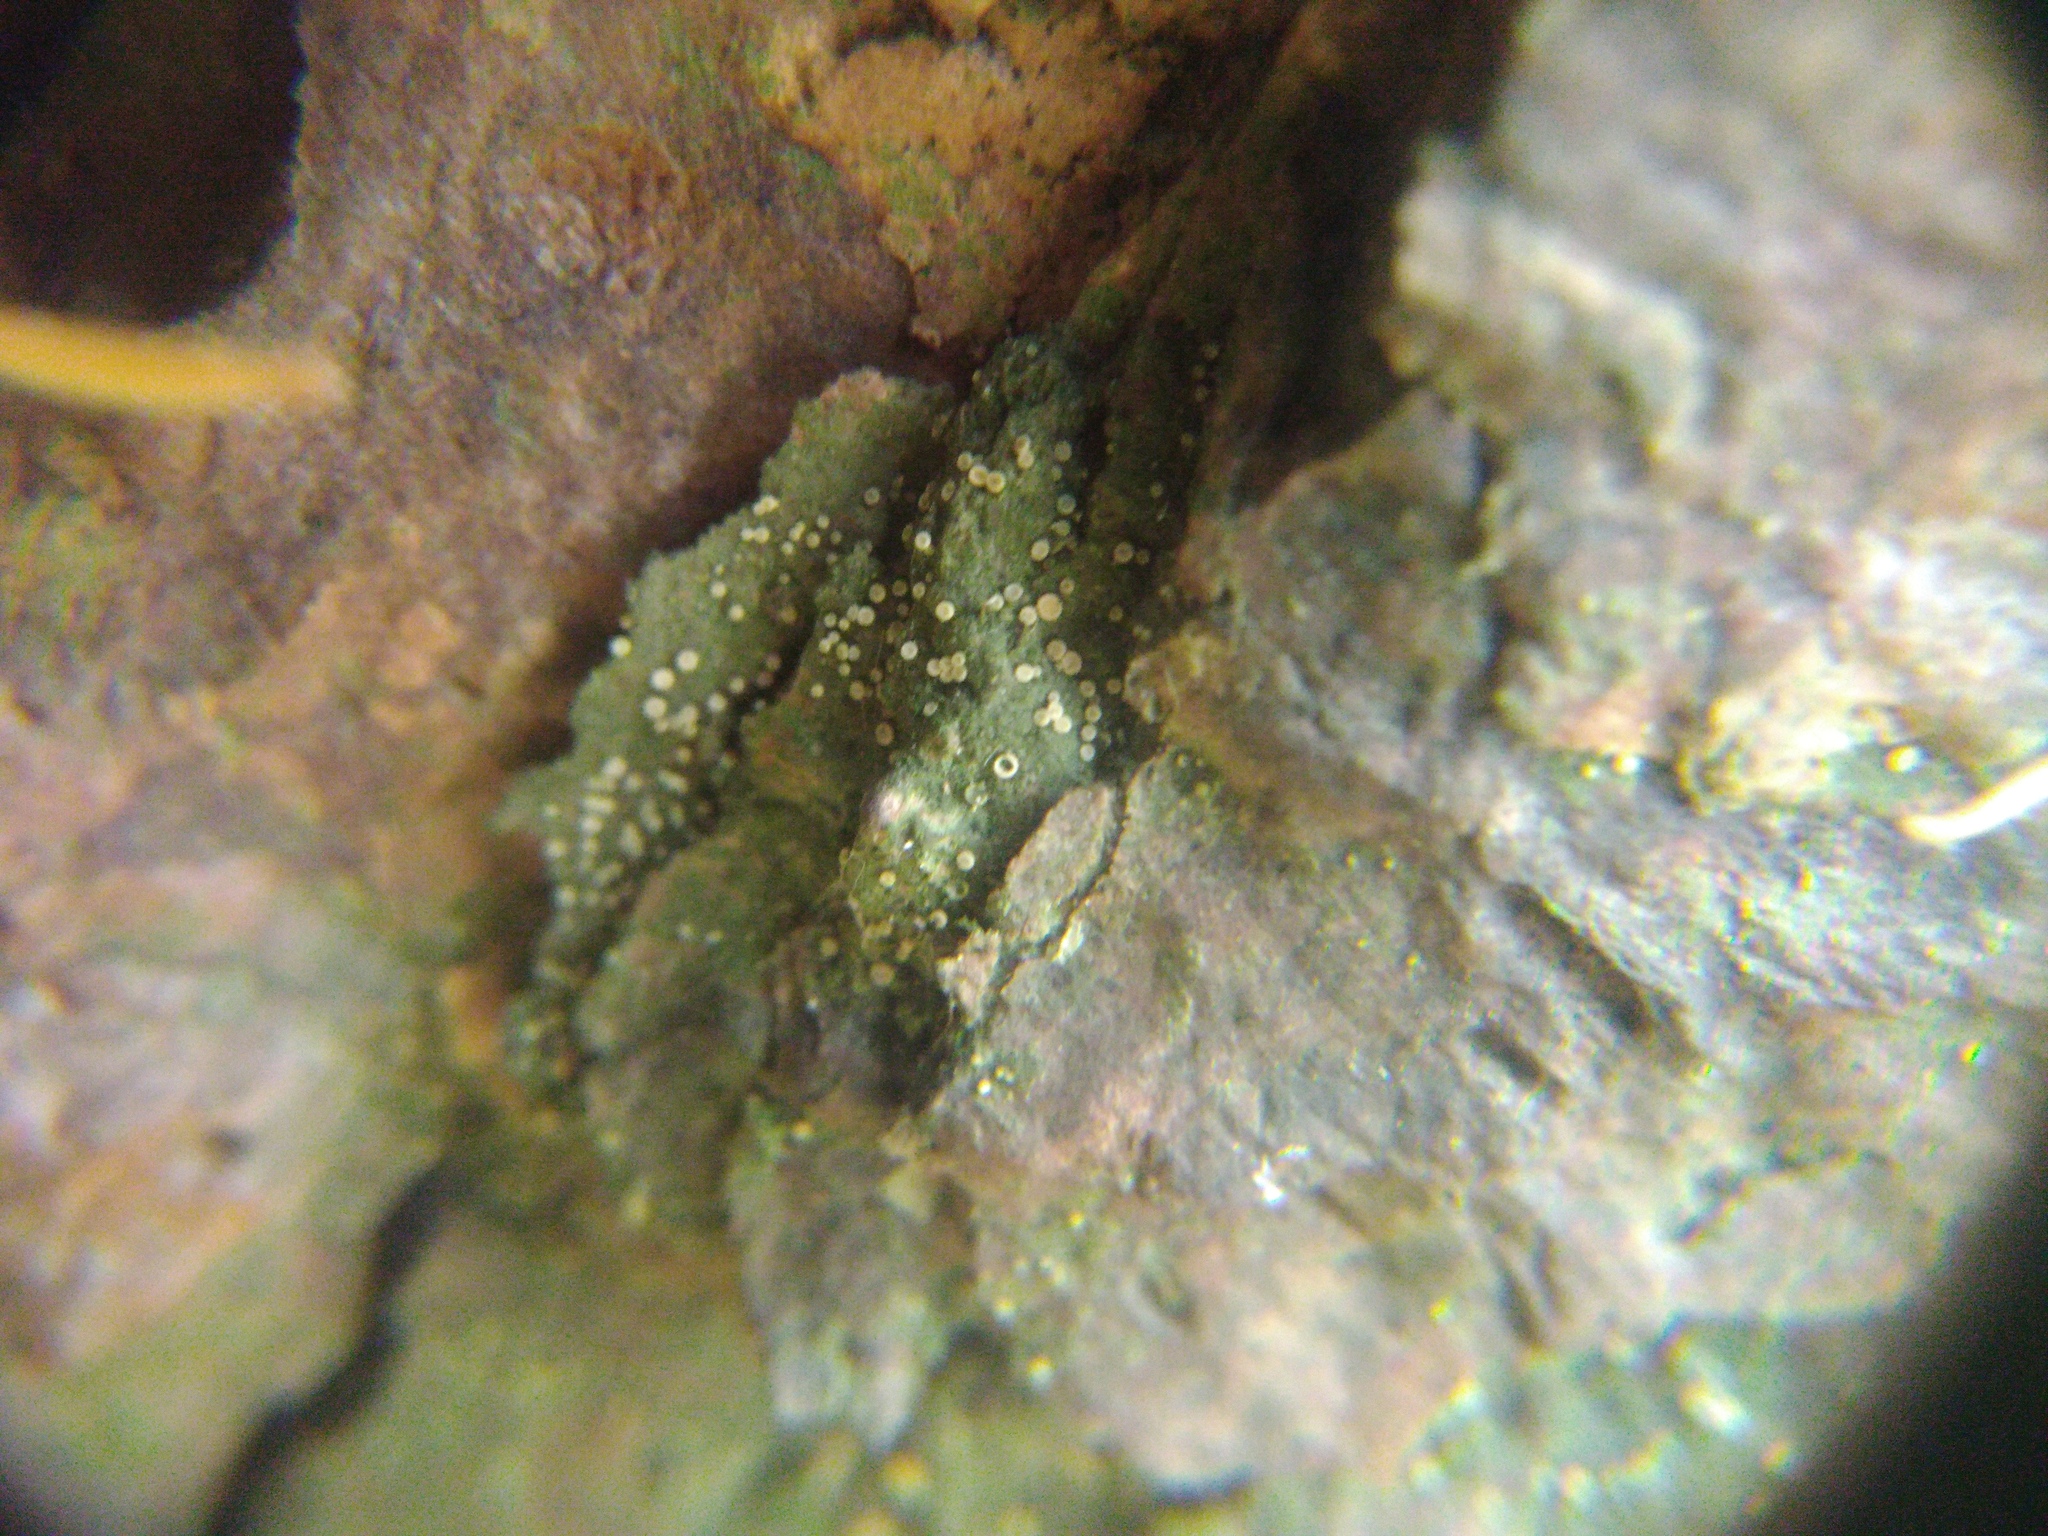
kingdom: Fungi
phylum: Ascomycota
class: Lecanoromycetes
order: Ostropales
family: Coenogoniaceae
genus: Coenogonium
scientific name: Coenogonium pineti
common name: Pink dimple lichen
